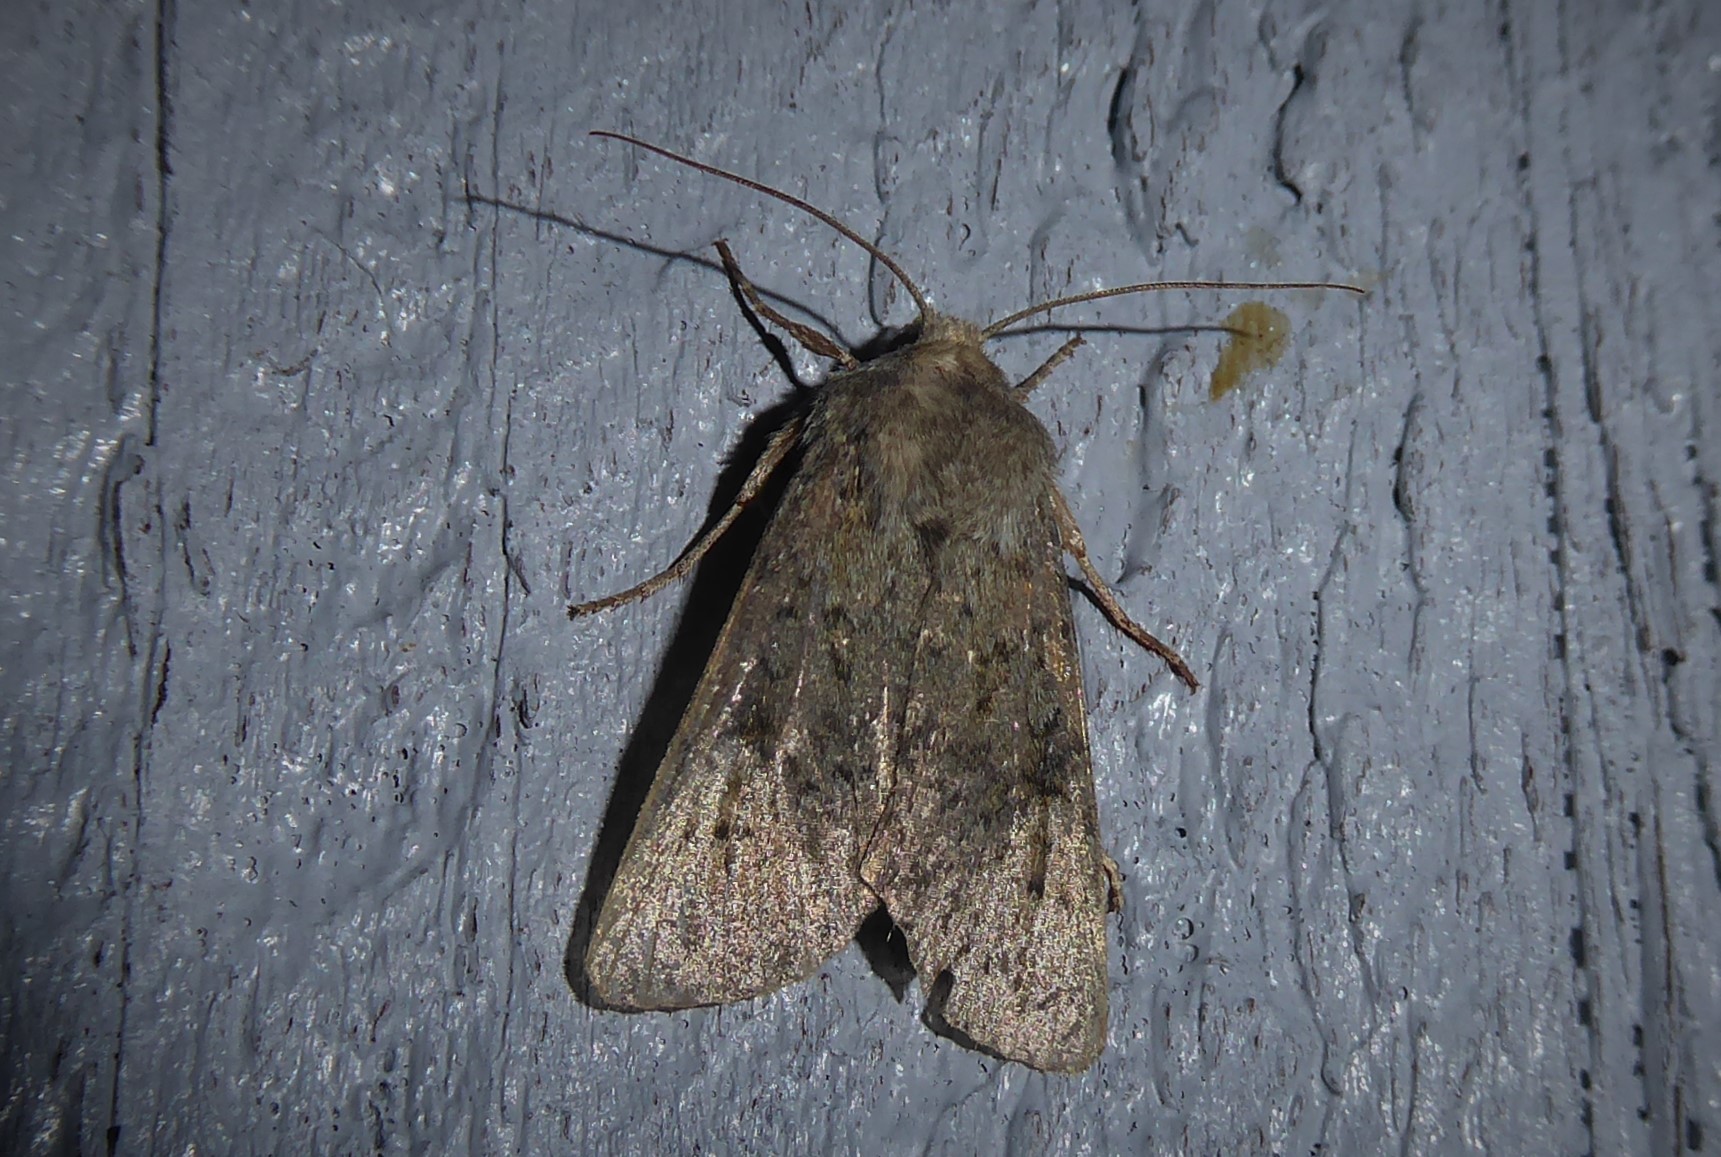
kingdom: Animalia
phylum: Arthropoda
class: Insecta
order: Lepidoptera
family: Noctuidae
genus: Ichneutica
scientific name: Ichneutica moderata
